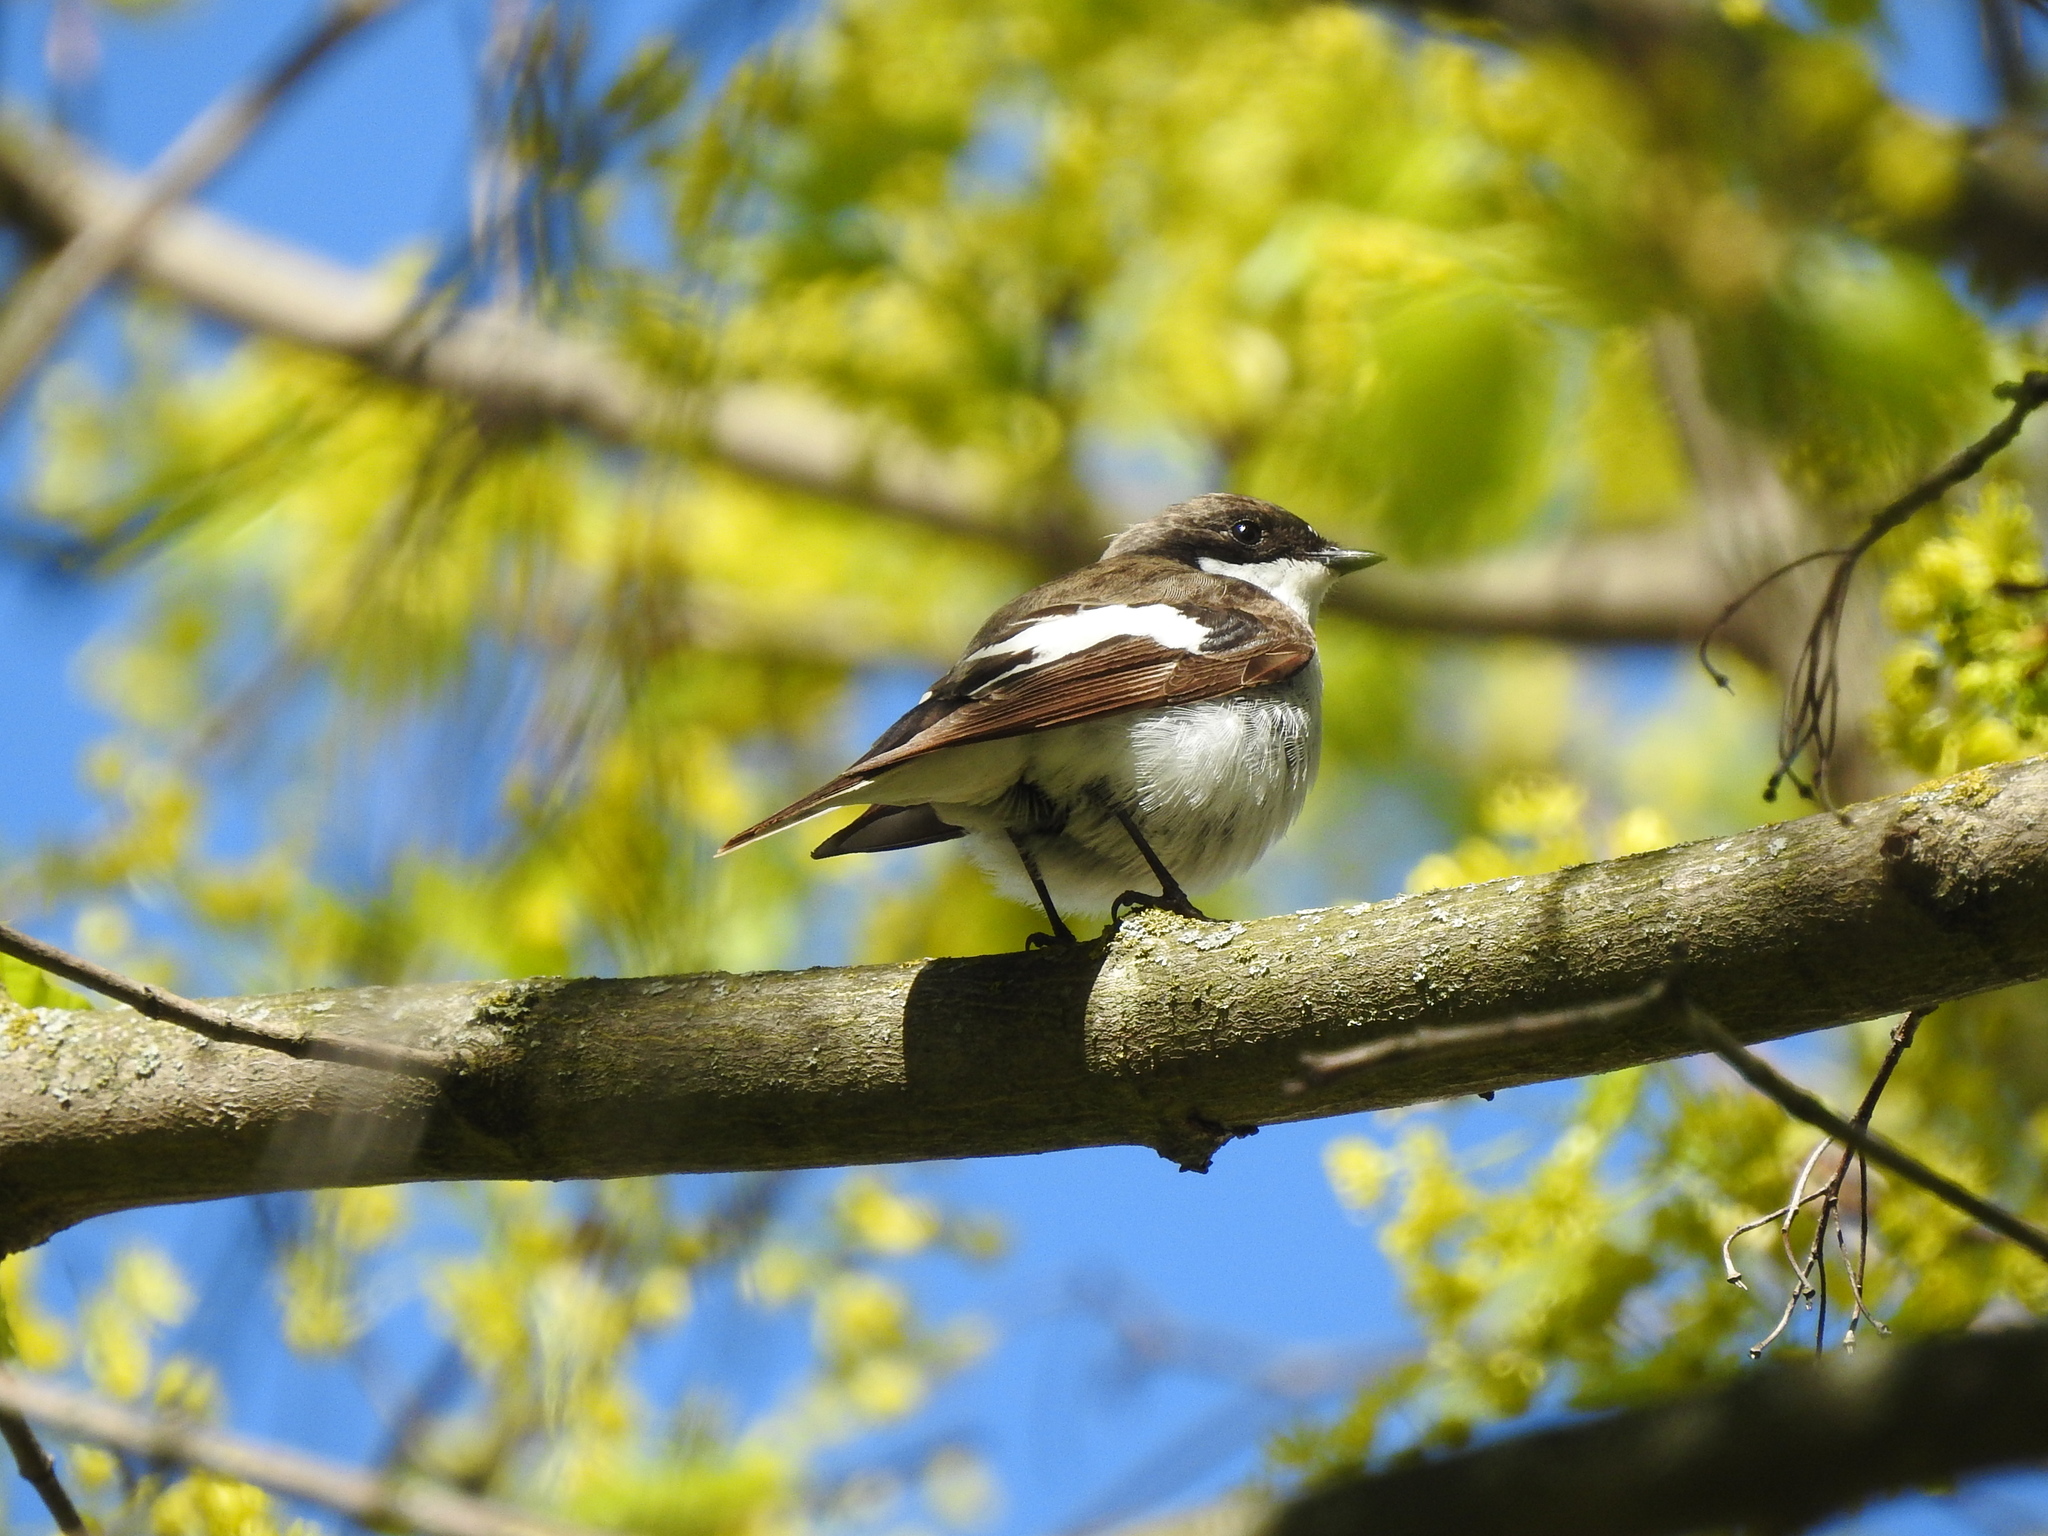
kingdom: Animalia
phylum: Chordata
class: Aves
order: Passeriformes
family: Muscicapidae
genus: Ficedula
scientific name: Ficedula hypoleuca
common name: European pied flycatcher
